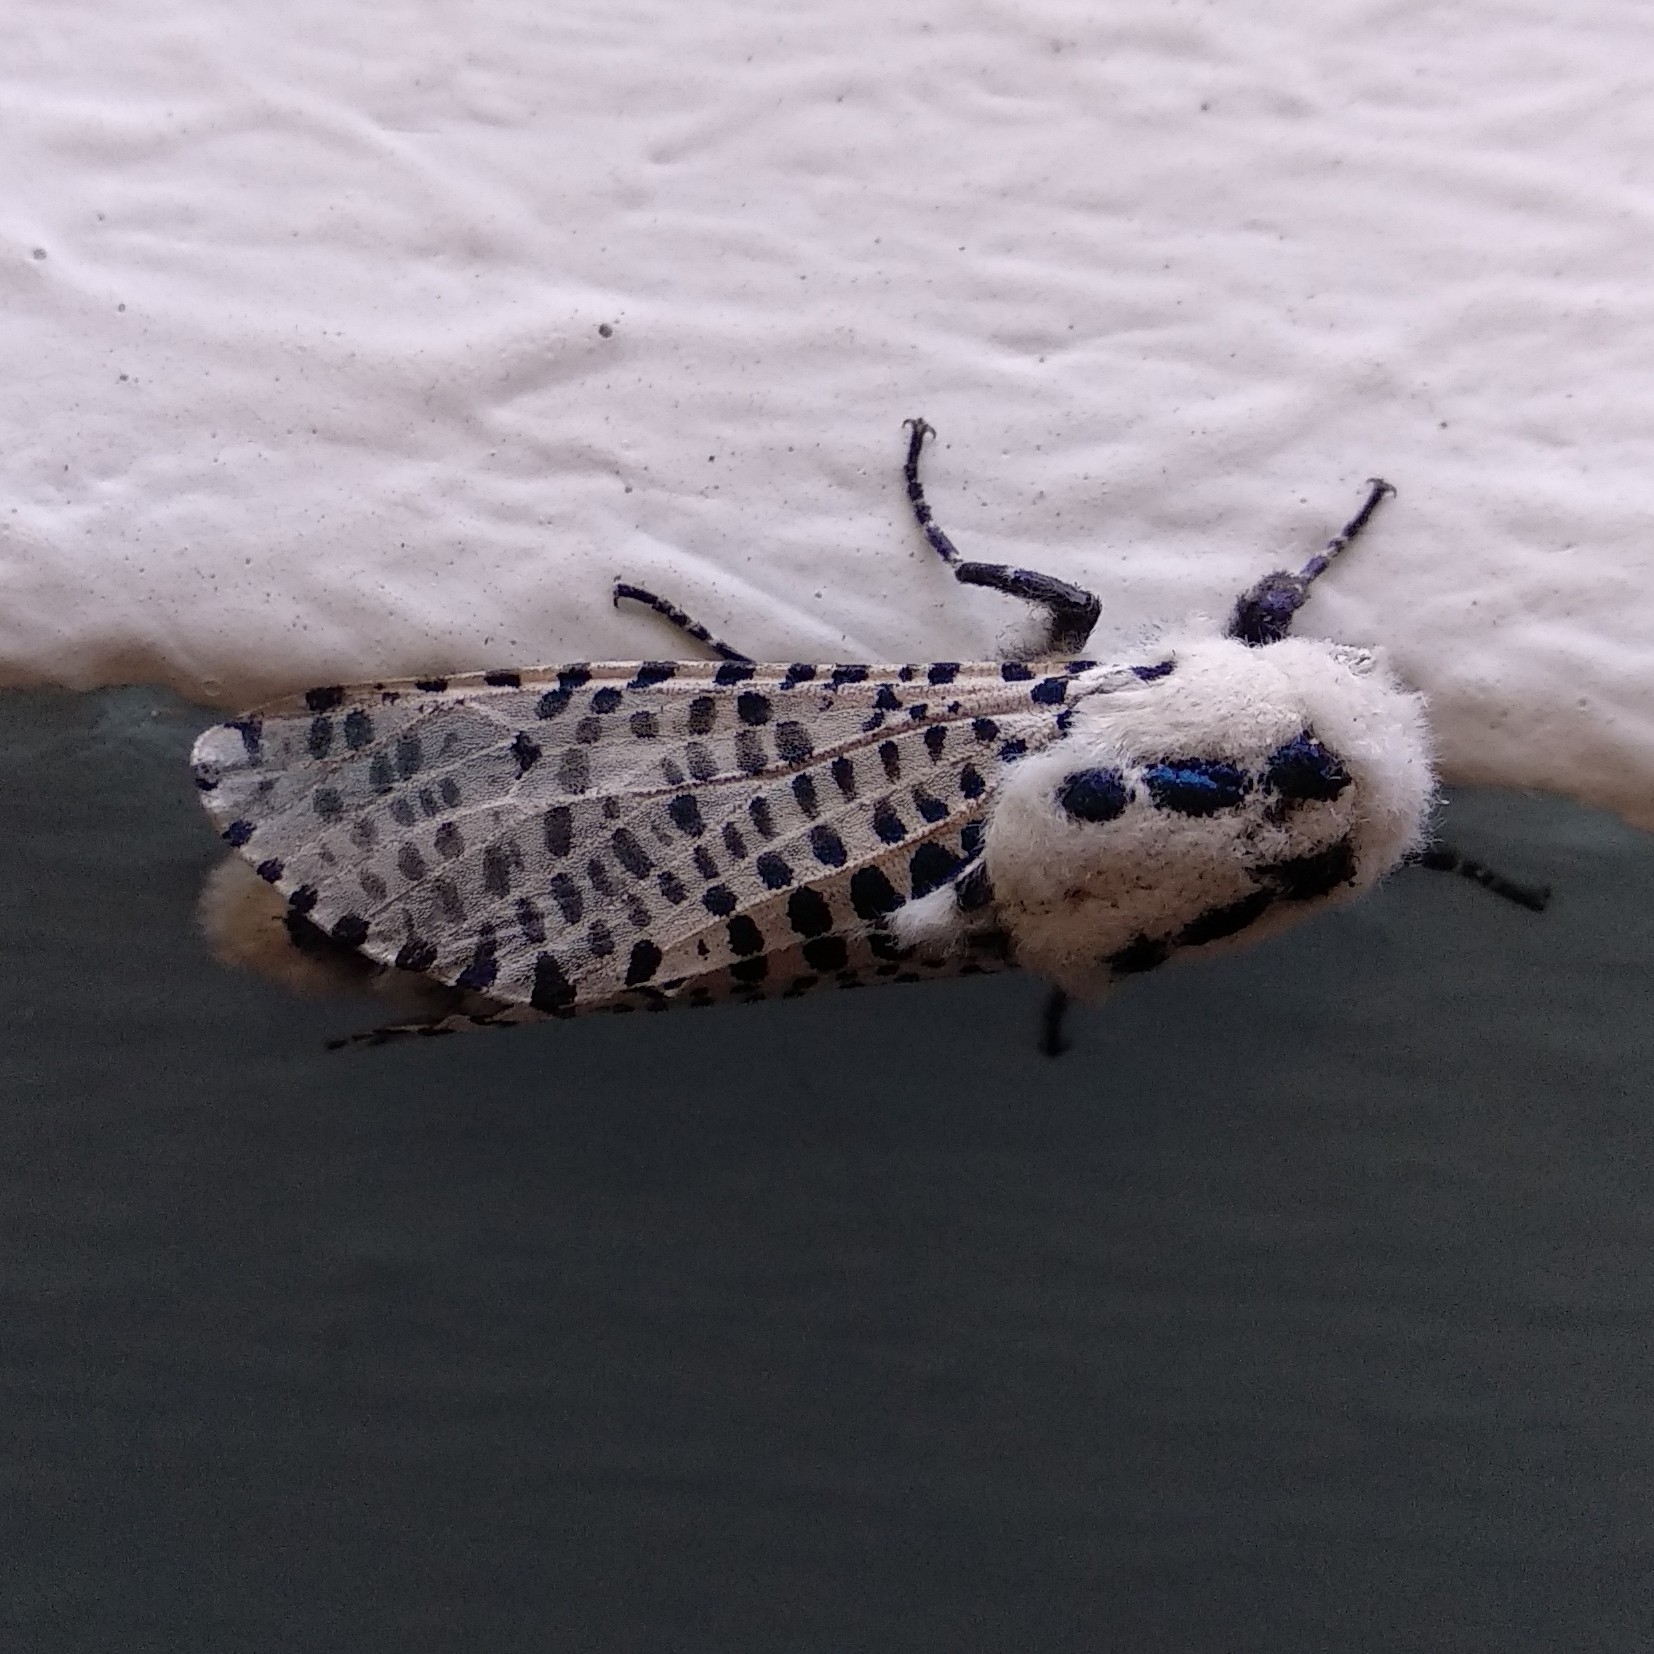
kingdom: Animalia
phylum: Arthropoda
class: Insecta
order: Lepidoptera
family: Cossidae
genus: Zeuzera
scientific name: Zeuzera pyrina
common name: Leopard moth
